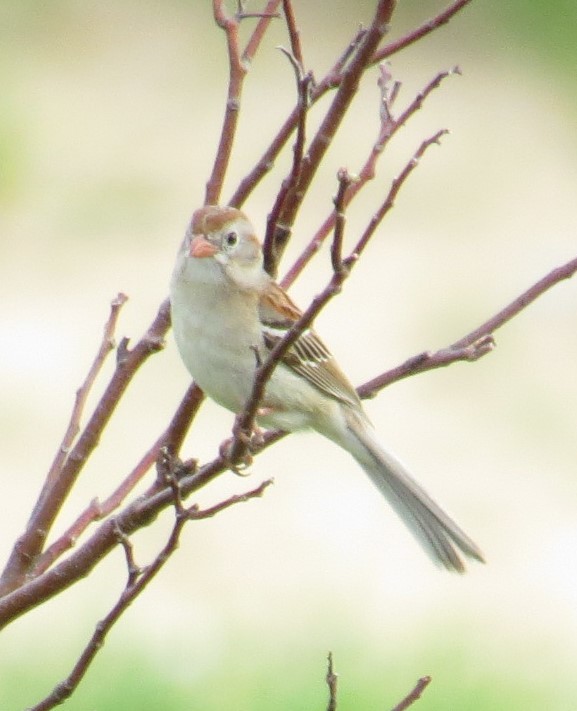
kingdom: Animalia
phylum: Chordata
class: Aves
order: Passeriformes
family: Passerellidae
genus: Spizella
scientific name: Spizella pusilla
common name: Field sparrow
